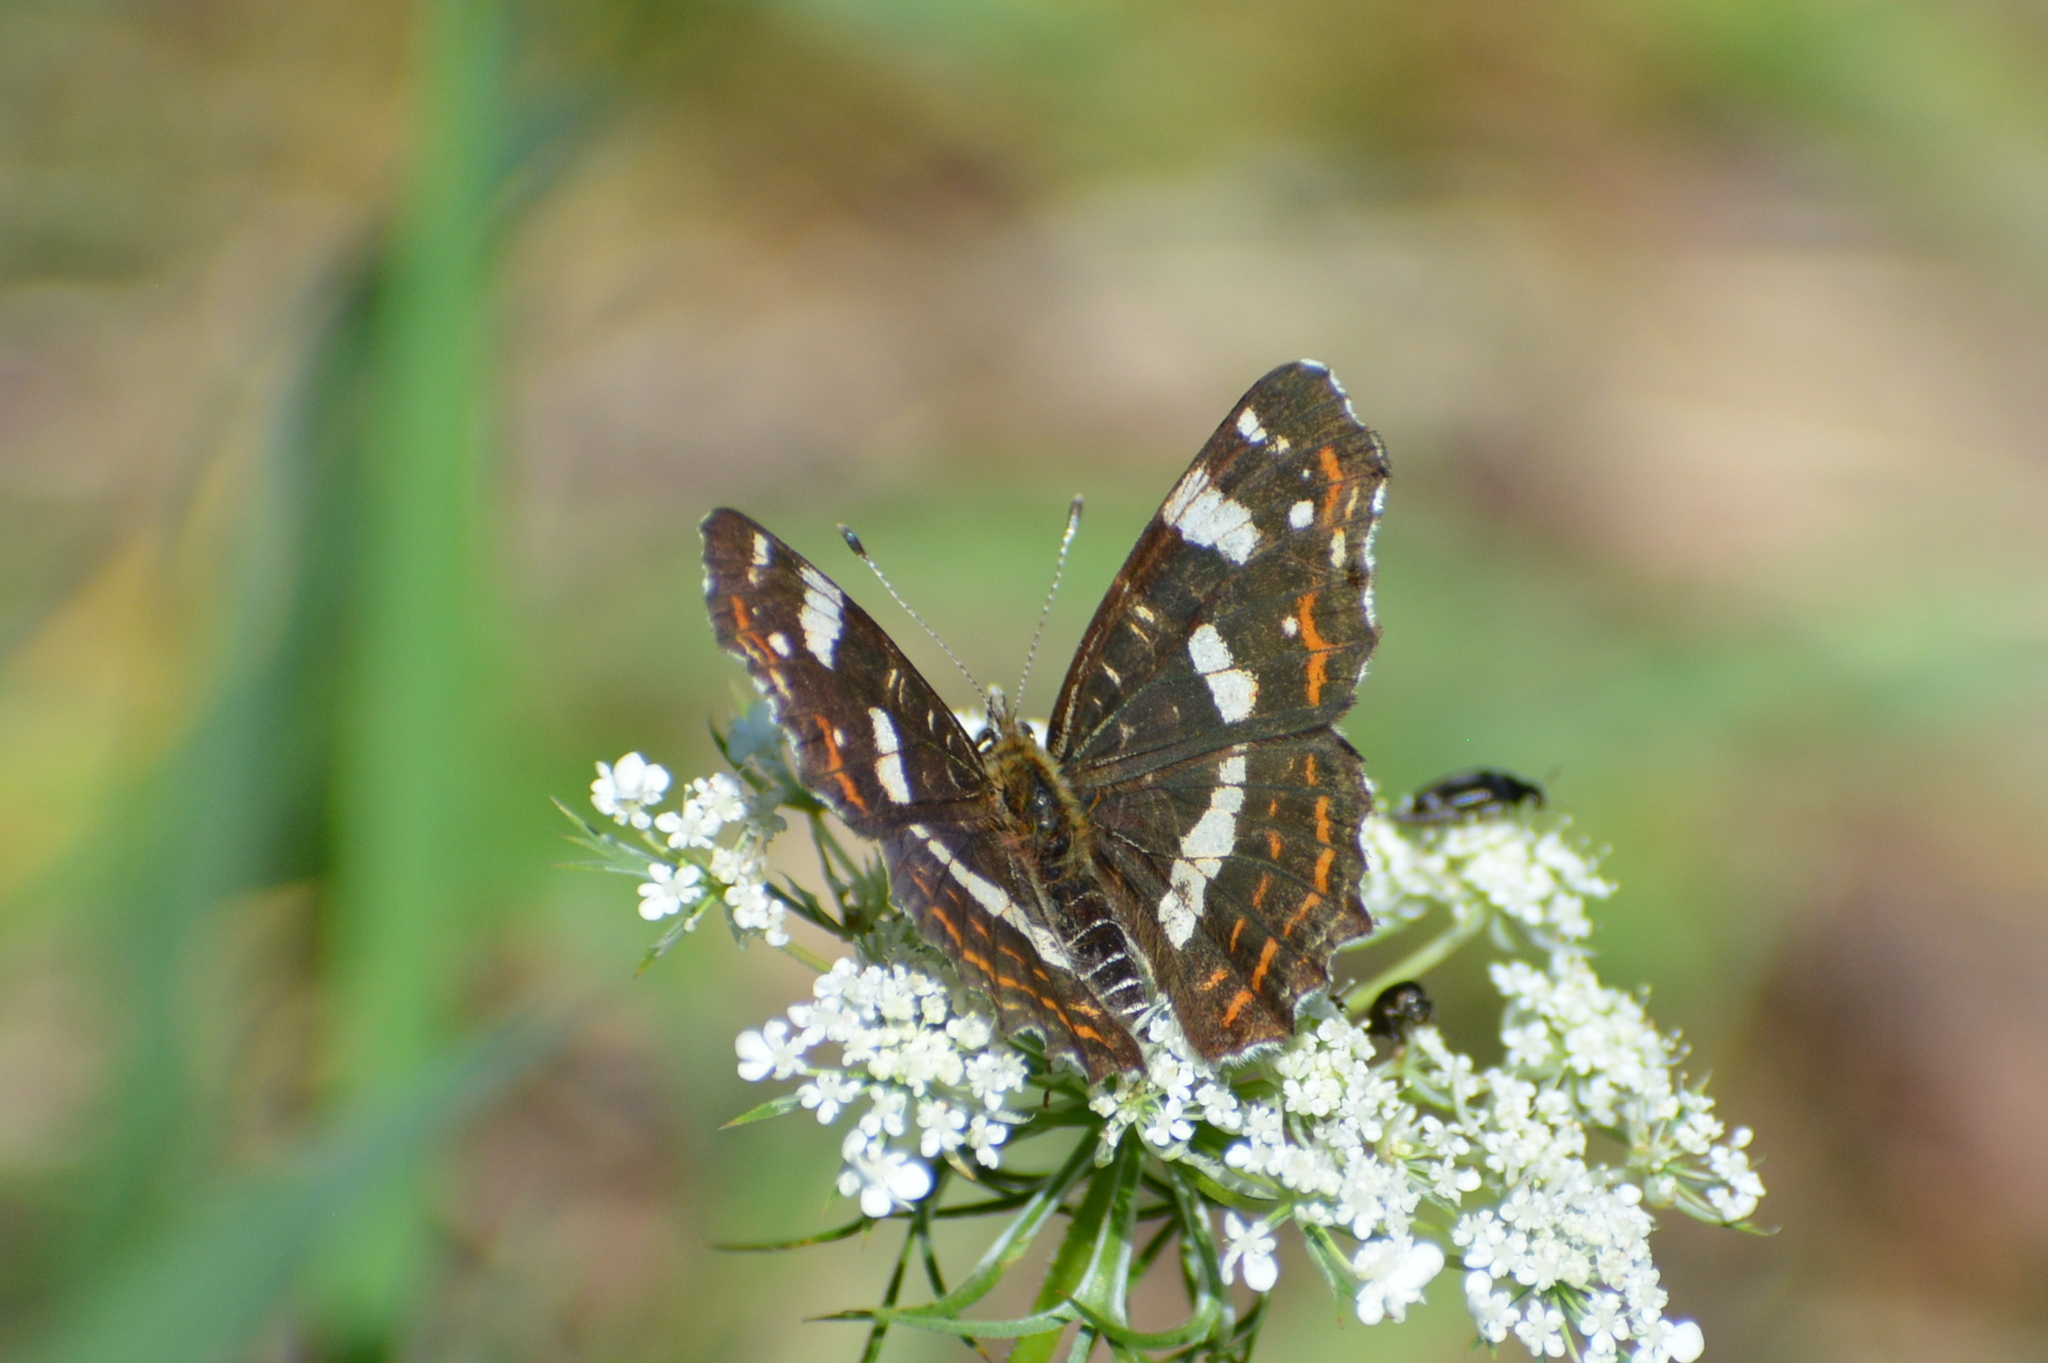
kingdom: Animalia
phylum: Arthropoda
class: Insecta
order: Lepidoptera
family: Nymphalidae
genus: Araschnia
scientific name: Araschnia levana
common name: Map butterfly
